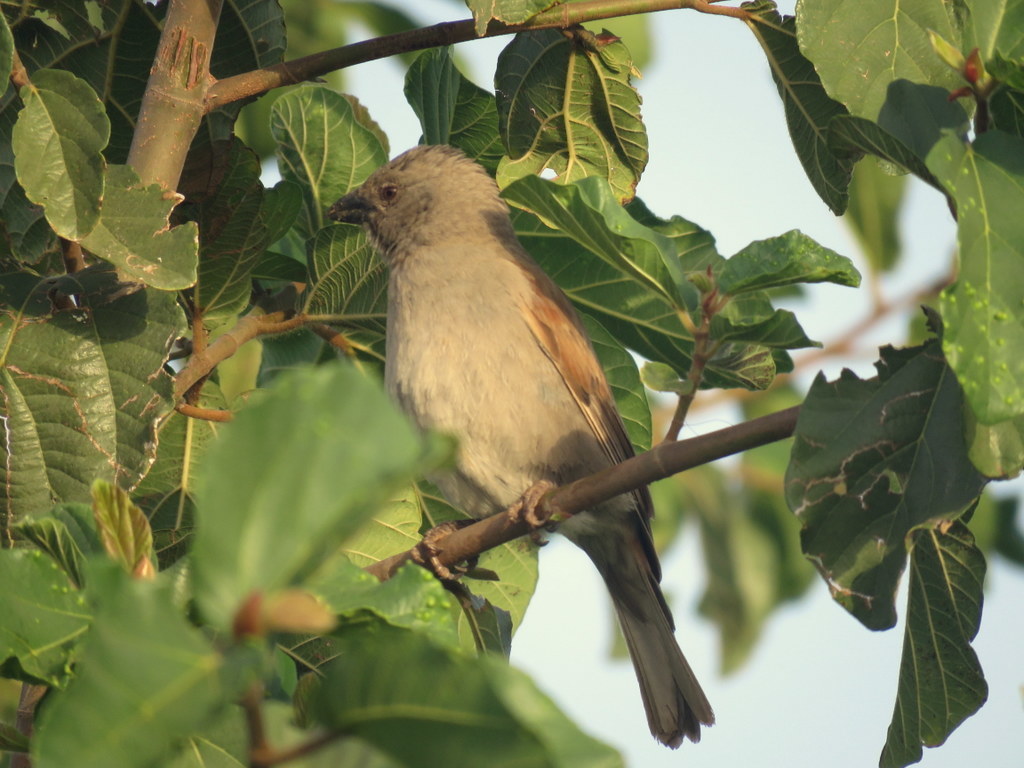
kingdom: Animalia
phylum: Chordata
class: Aves
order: Passeriformes
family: Passeridae
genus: Passer
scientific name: Passer griseus
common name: Northern grey-headed sparrow
